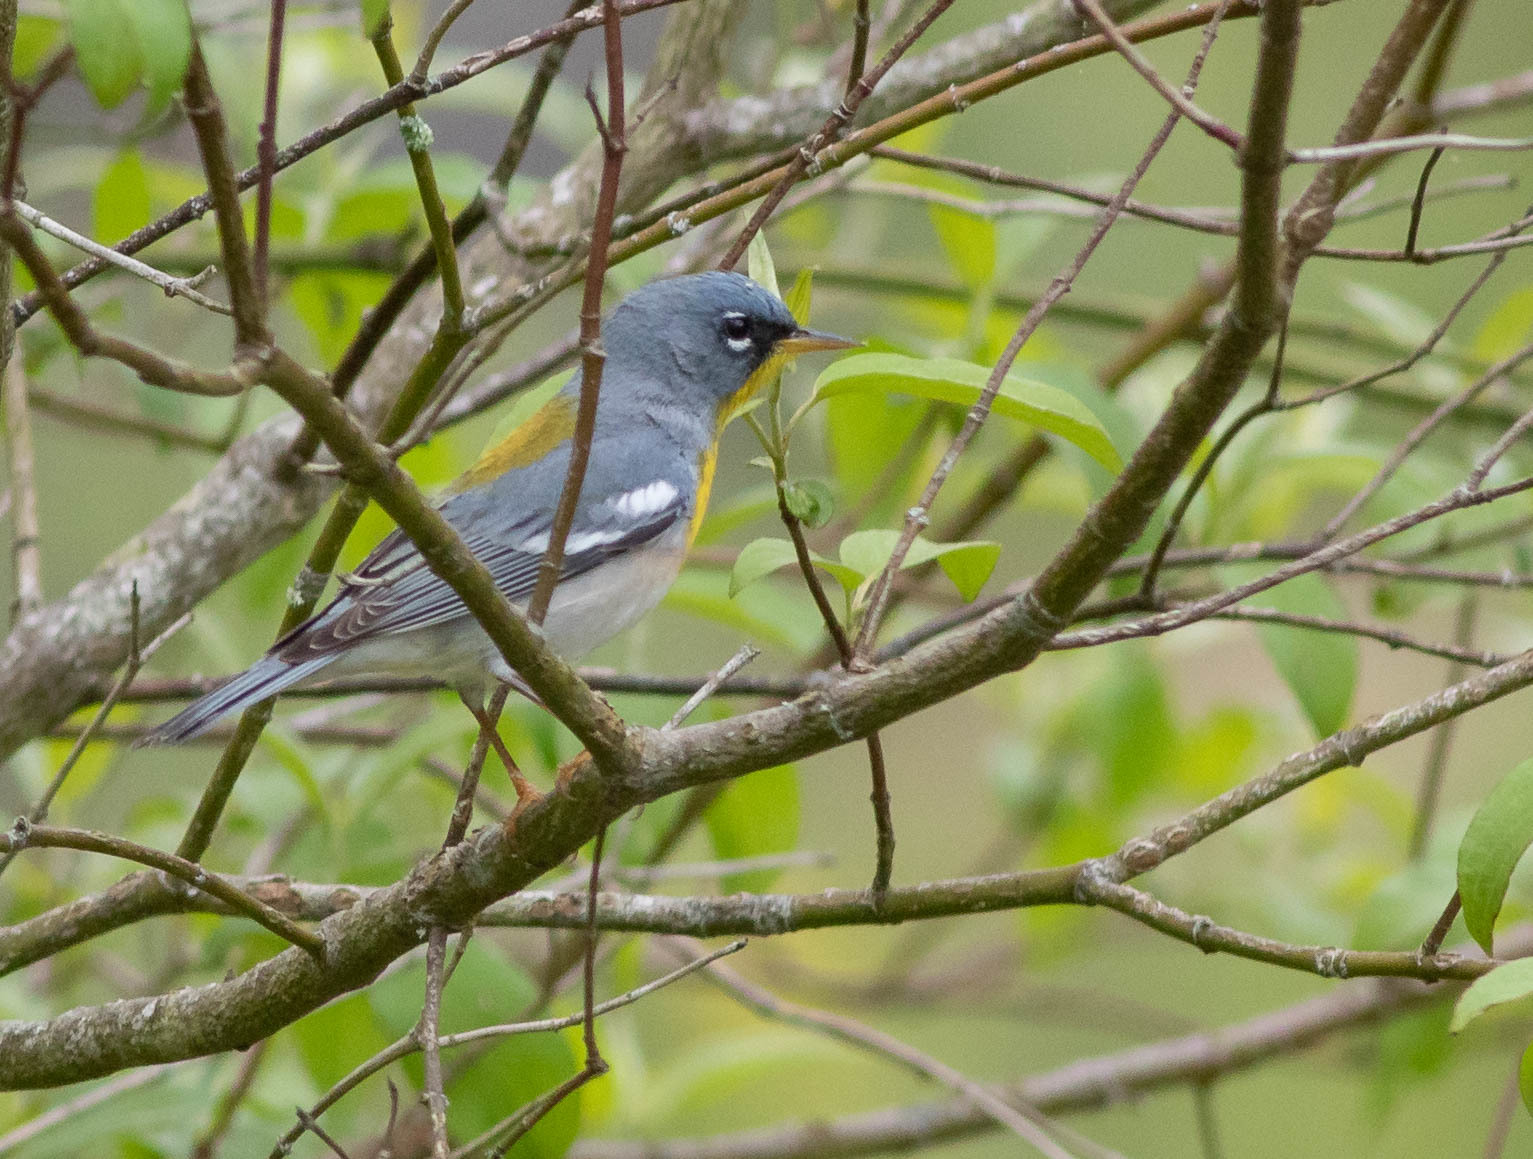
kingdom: Animalia
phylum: Chordata
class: Aves
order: Passeriformes
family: Parulidae
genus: Setophaga
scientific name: Setophaga americana
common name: Northern parula
